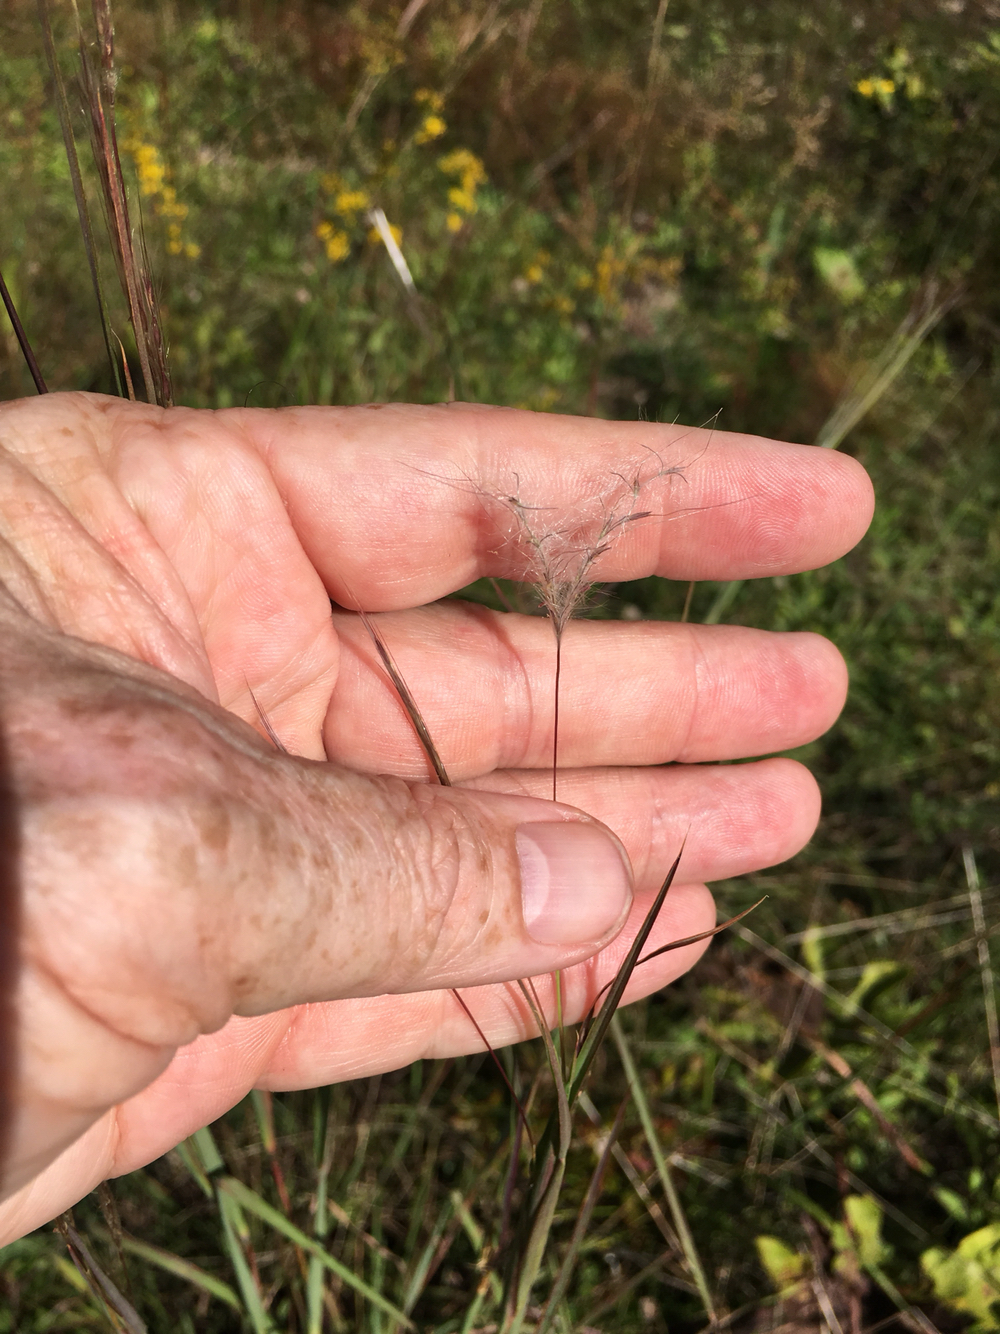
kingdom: Plantae
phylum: Tracheophyta
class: Liliopsida
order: Poales
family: Poaceae
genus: Andropogon
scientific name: Andropogon ternarius
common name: Split bluestem
